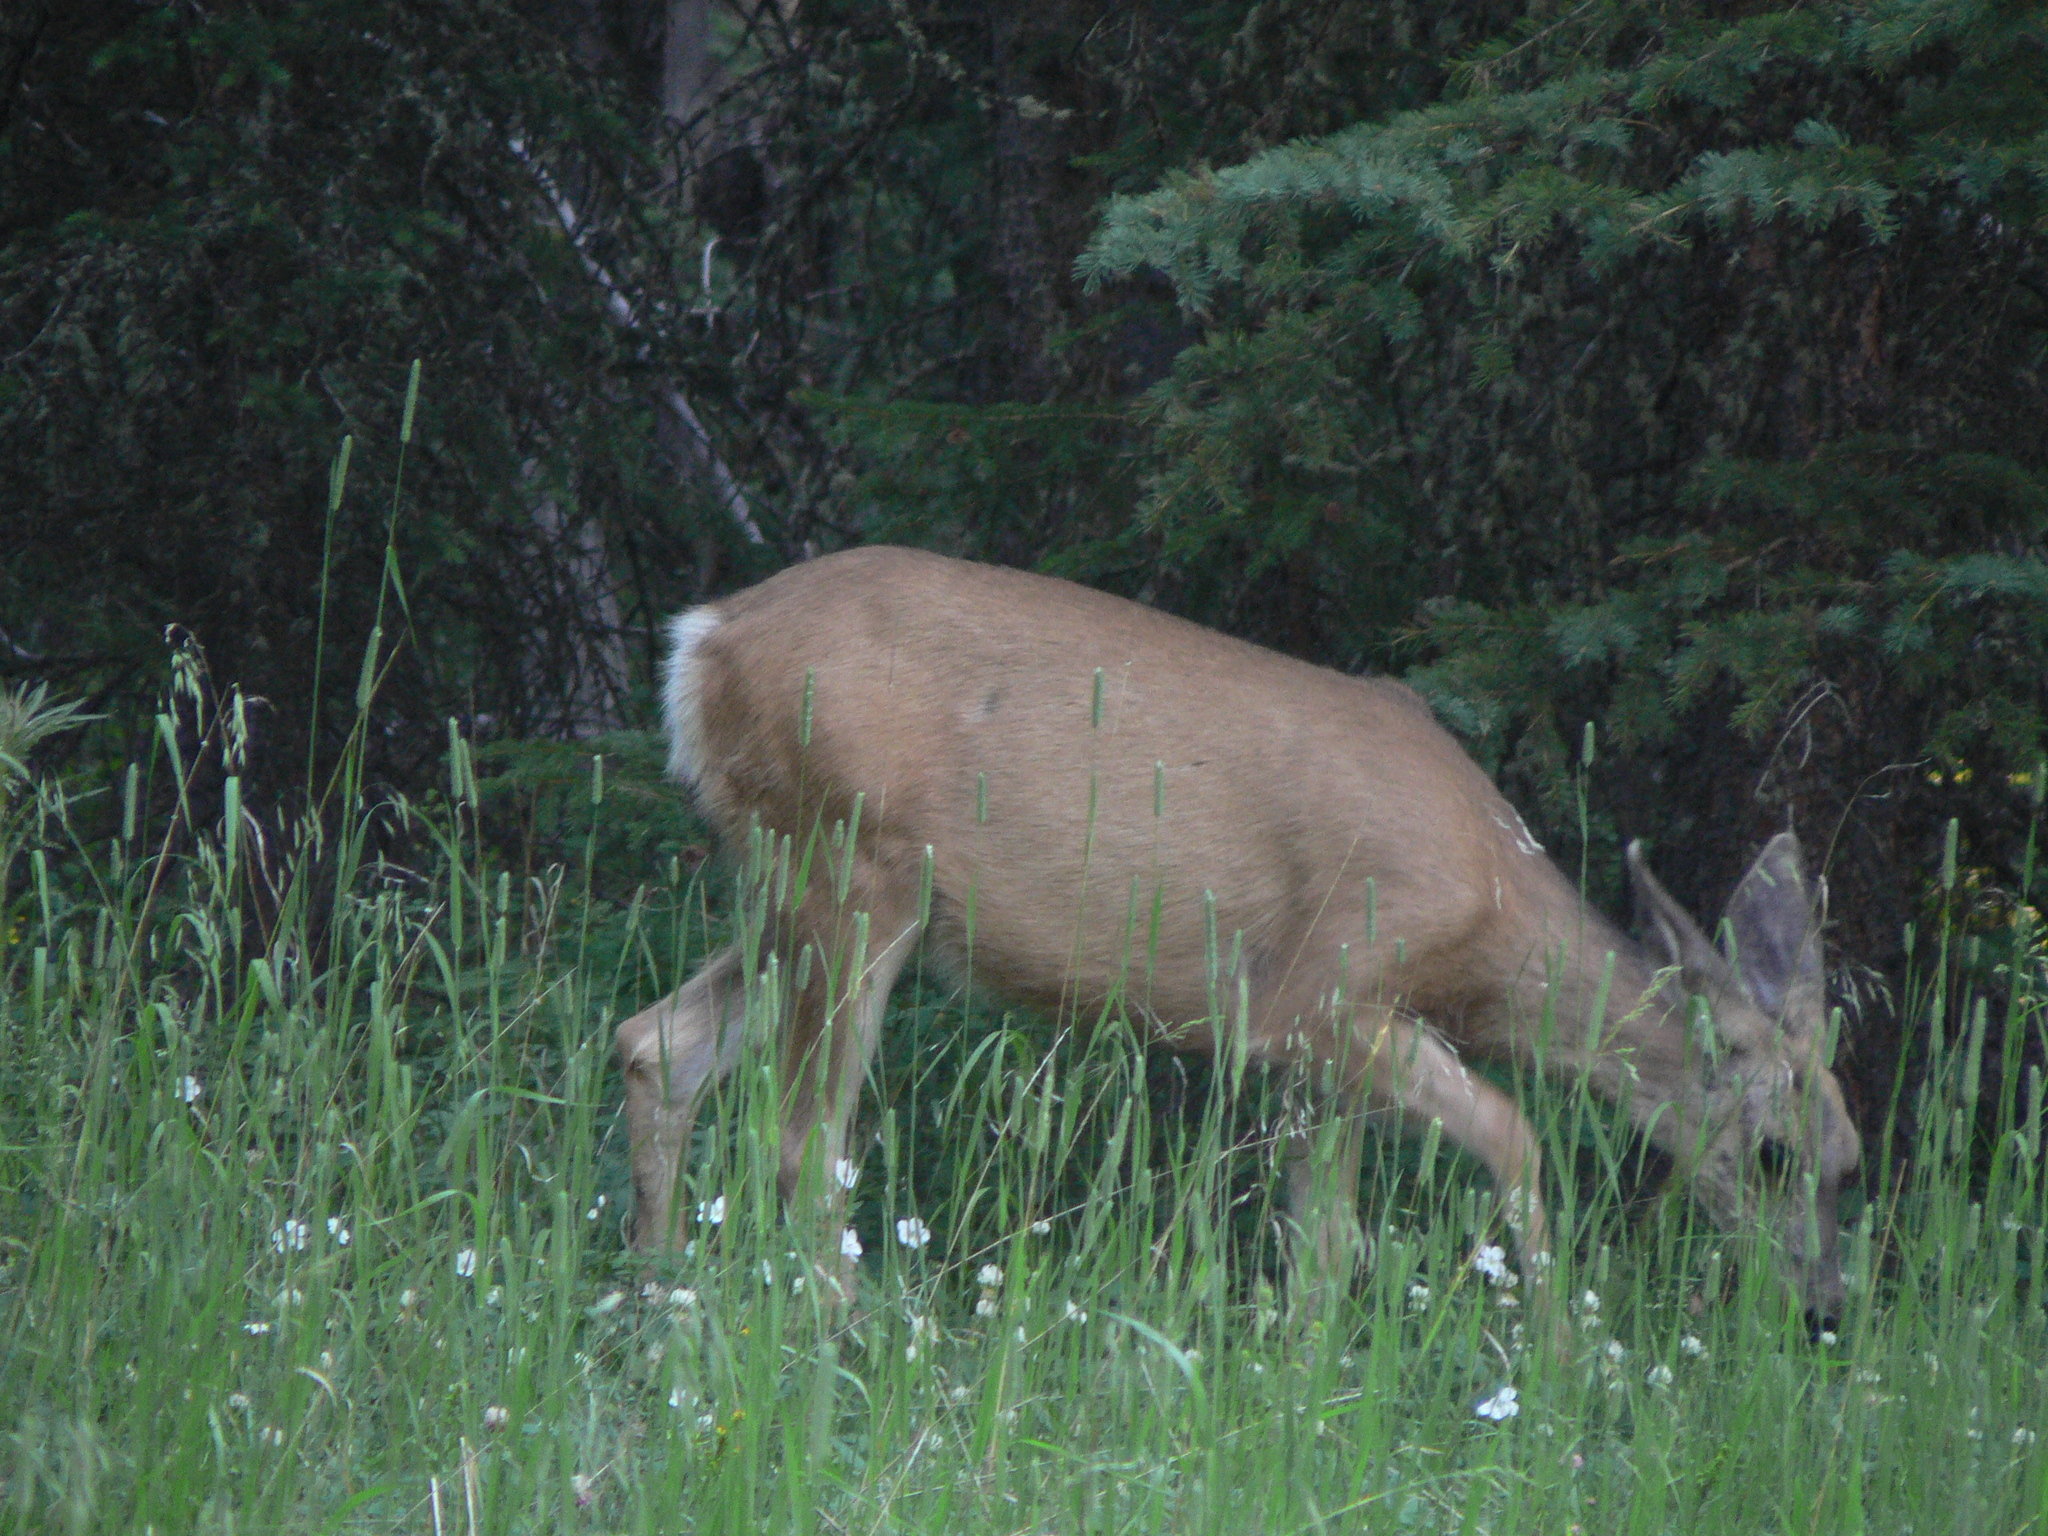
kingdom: Animalia
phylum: Chordata
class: Mammalia
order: Artiodactyla
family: Cervidae
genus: Odocoileus
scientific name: Odocoileus hemionus
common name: Mule deer
